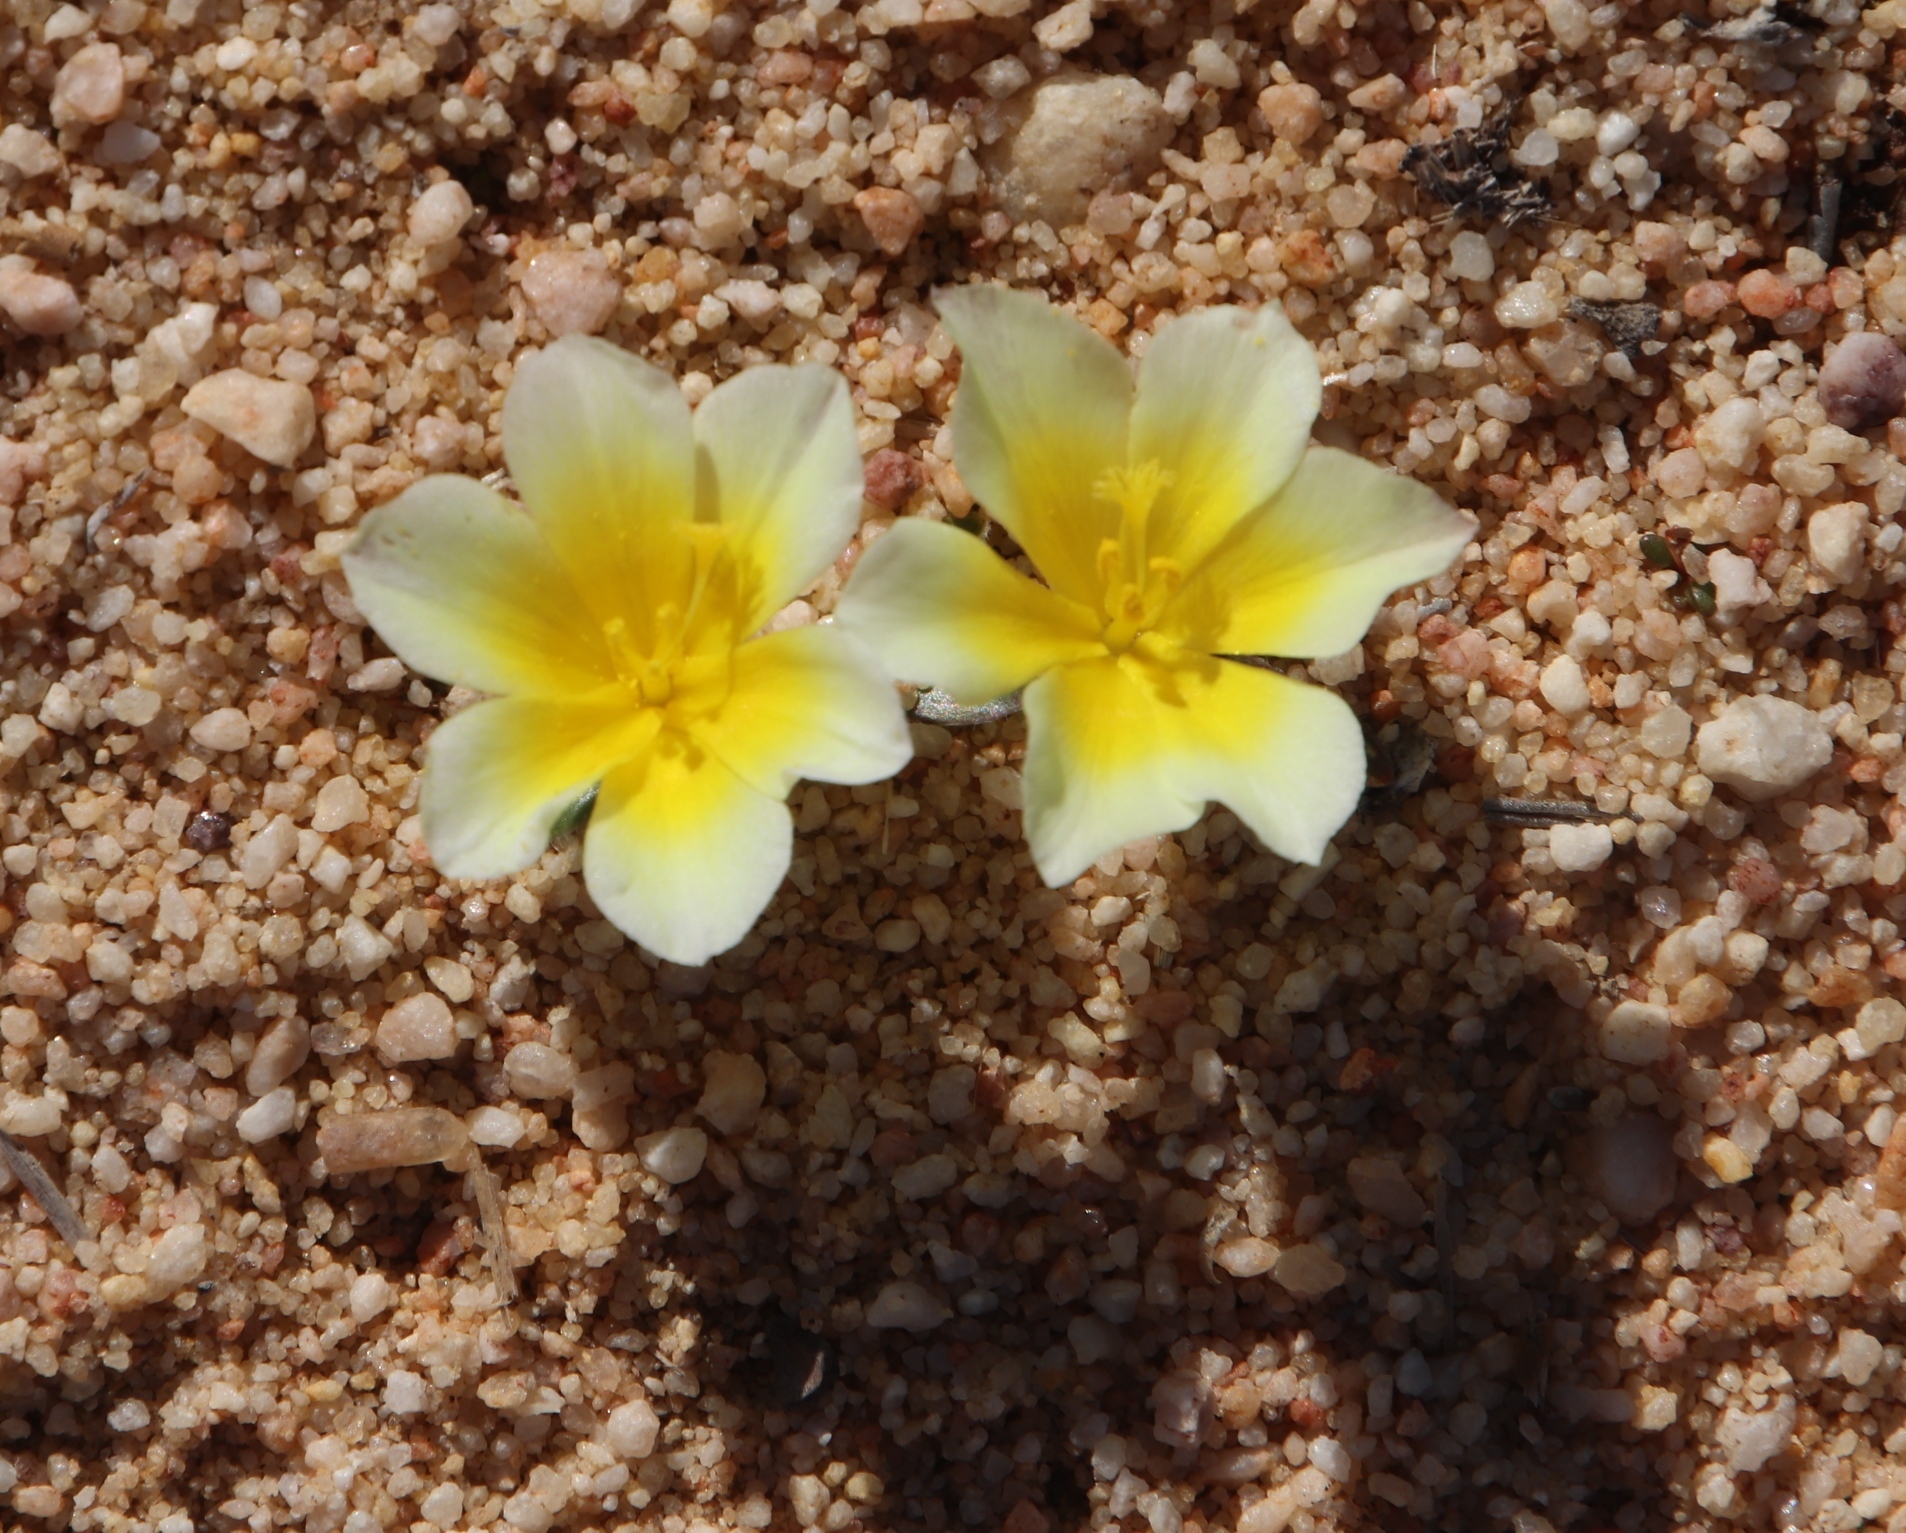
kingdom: Plantae
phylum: Tracheophyta
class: Liliopsida
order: Asparagales
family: Iridaceae
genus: Moraea
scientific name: Moraea luteoalba
